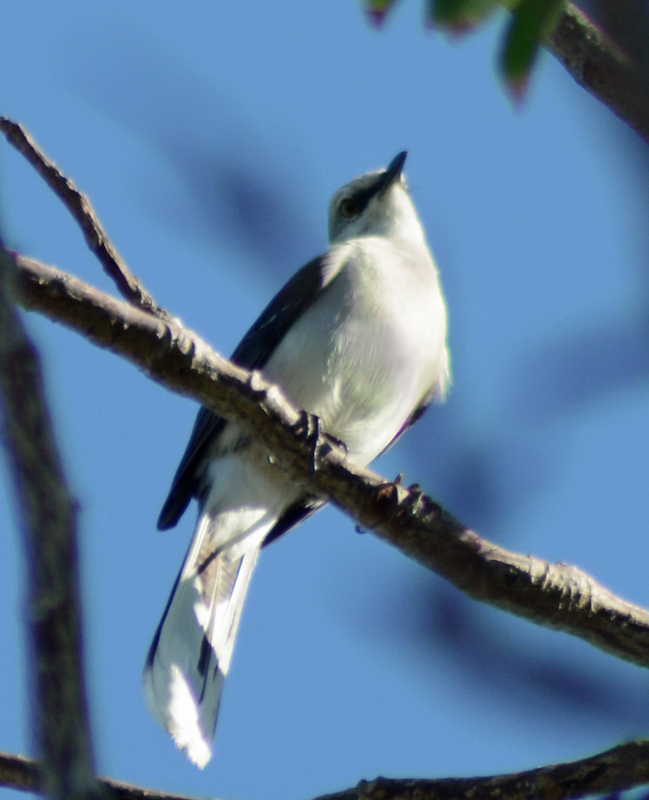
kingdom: Animalia
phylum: Chordata
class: Aves
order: Passeriformes
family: Mimidae
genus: Mimus
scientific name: Mimus gilvus
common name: Tropical mockingbird
